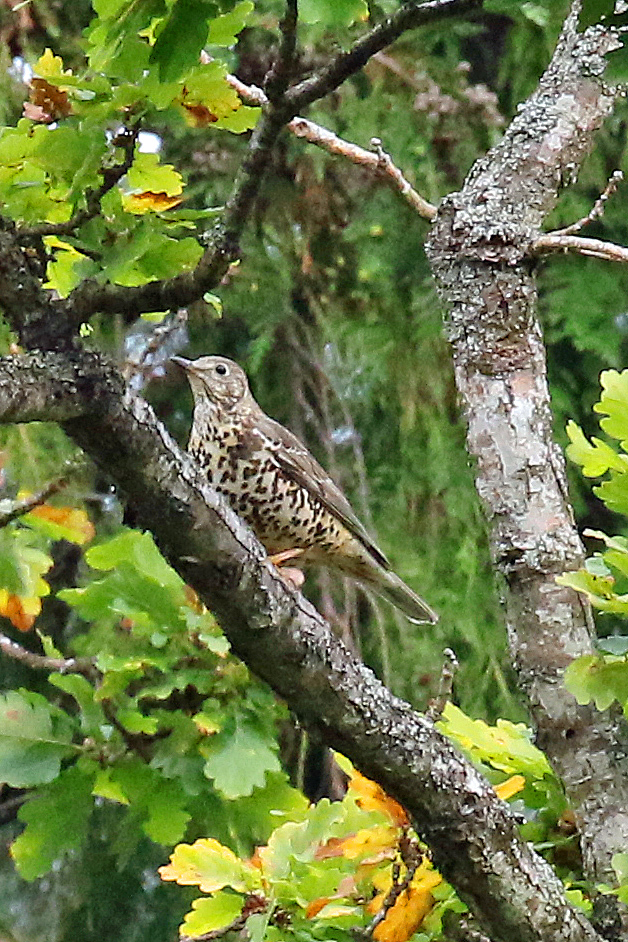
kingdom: Animalia
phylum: Chordata
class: Aves
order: Passeriformes
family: Turdidae
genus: Turdus
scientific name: Turdus viscivorus
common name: Mistle thrush
